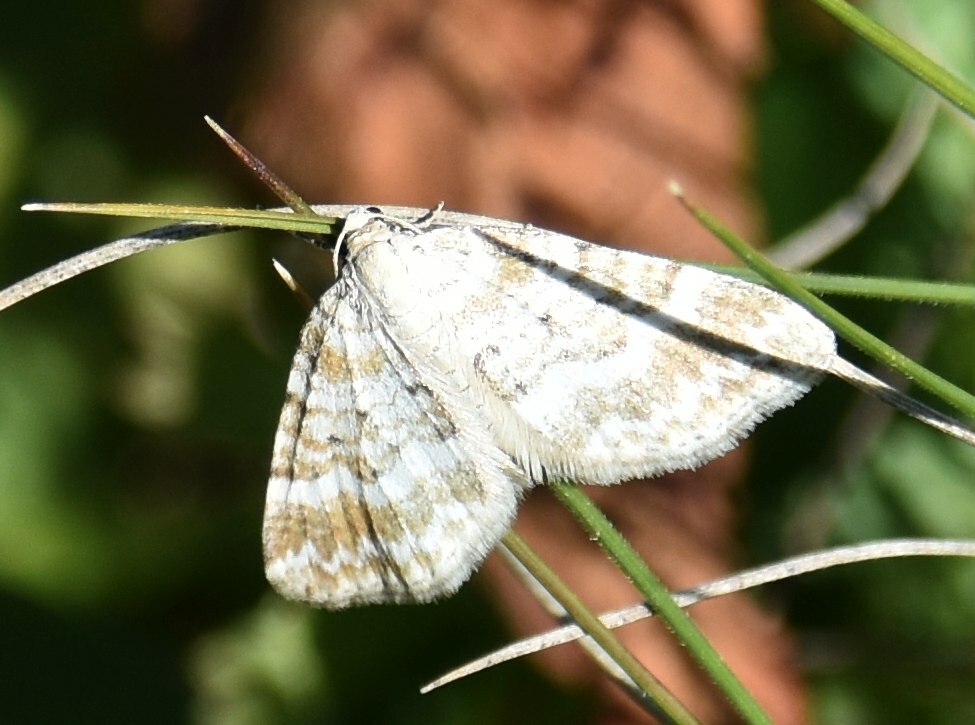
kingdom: Animalia
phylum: Arthropoda
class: Insecta
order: Lepidoptera
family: Geometridae
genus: Perizoma
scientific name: Perizoma albulata
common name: Grass rivulet
